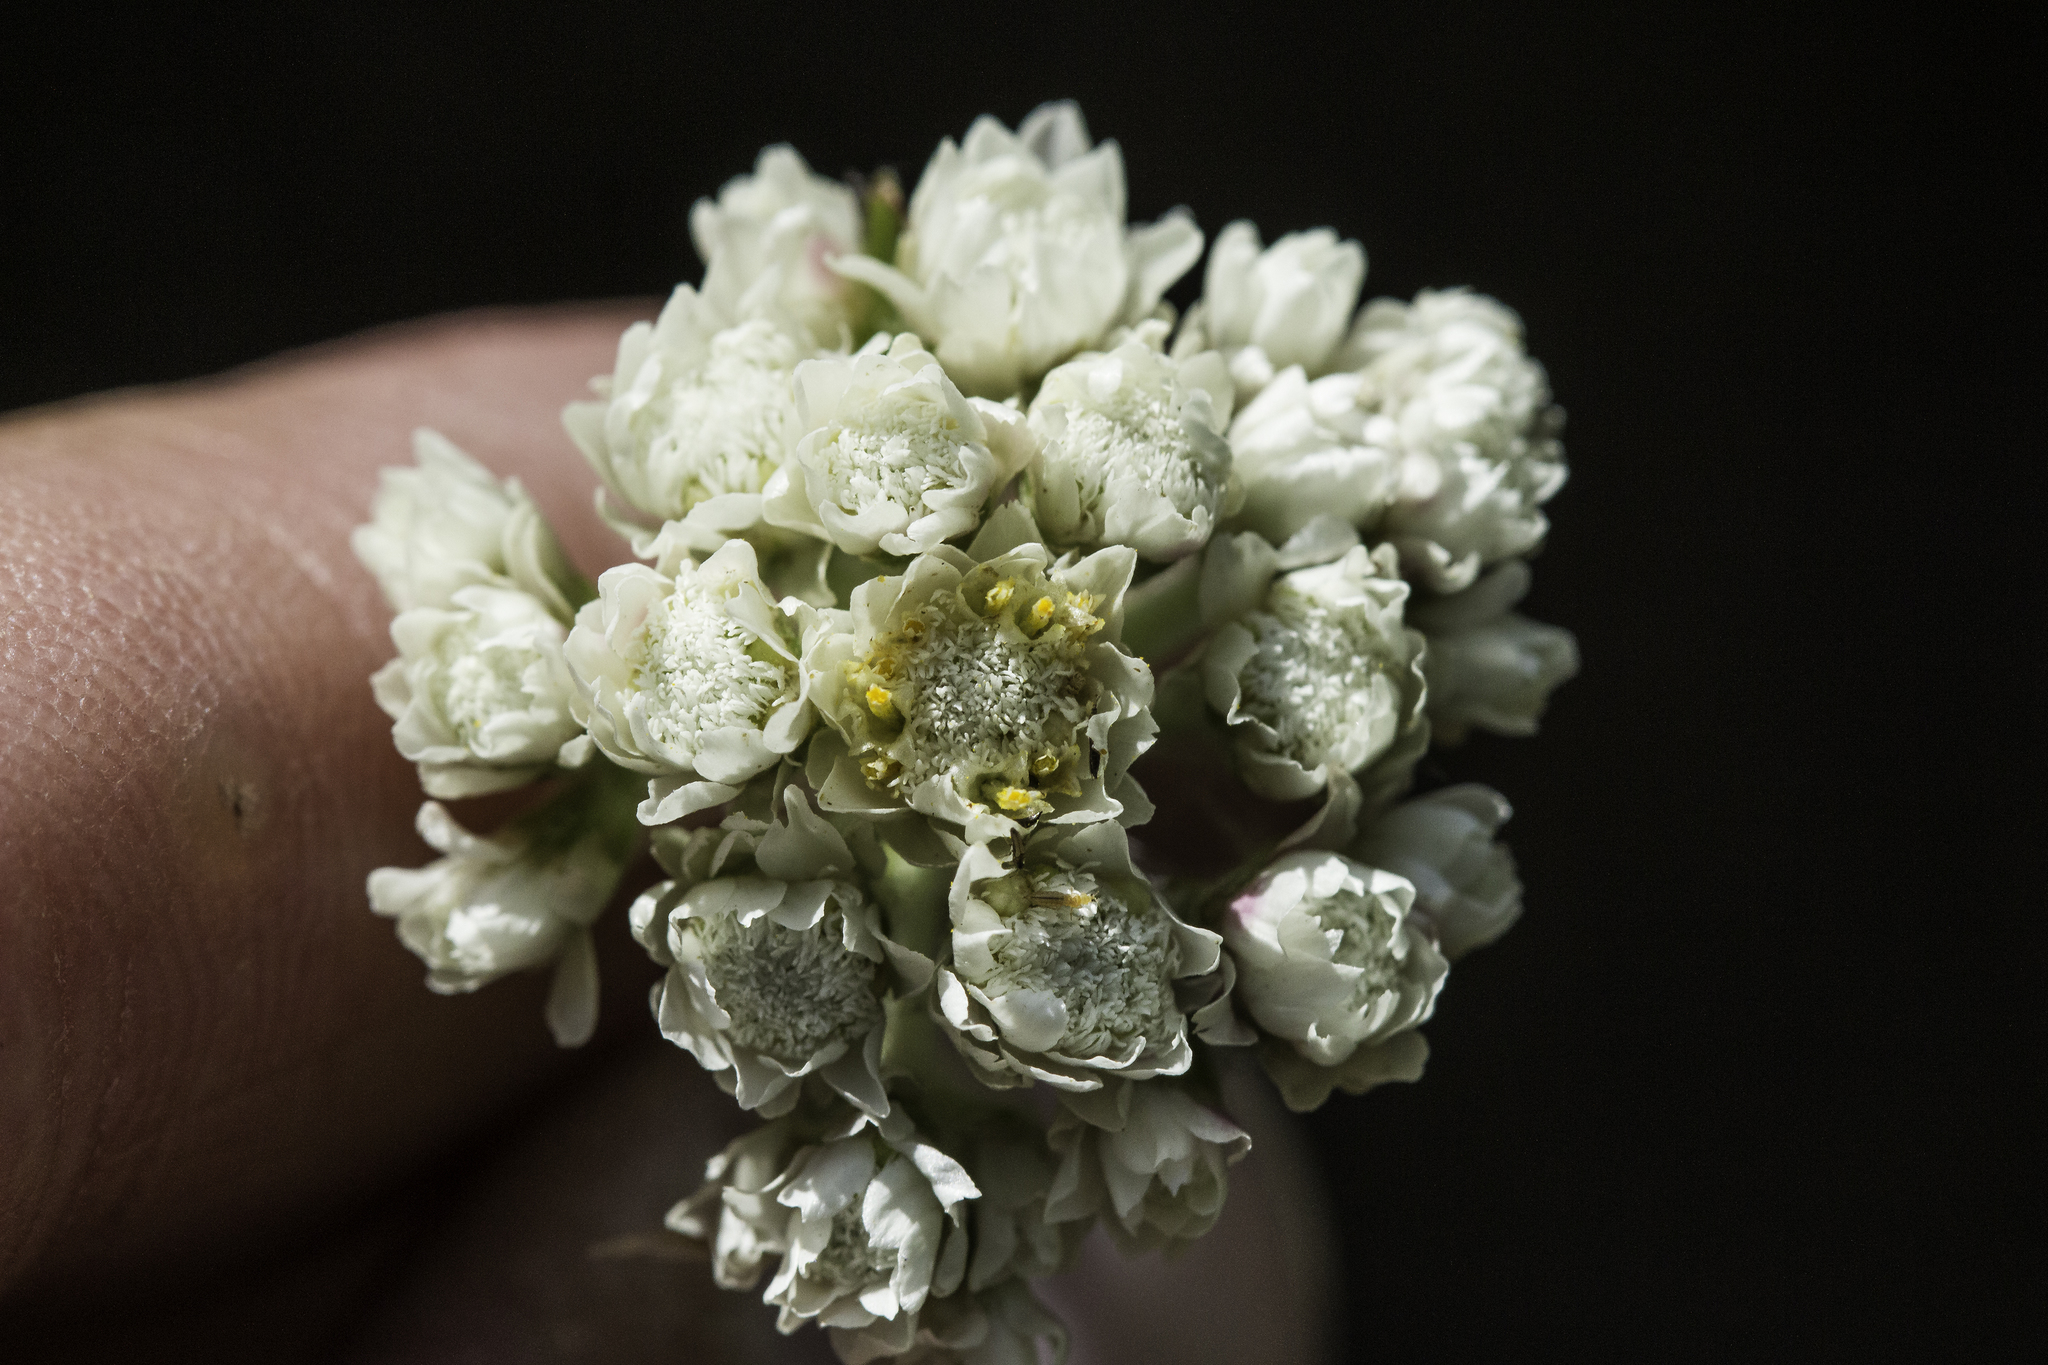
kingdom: Plantae
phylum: Tracheophyta
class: Magnoliopsida
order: Asterales
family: Asteraceae
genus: Antennaria
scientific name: Antennaria anaphaloides
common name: Tall pussytoes
